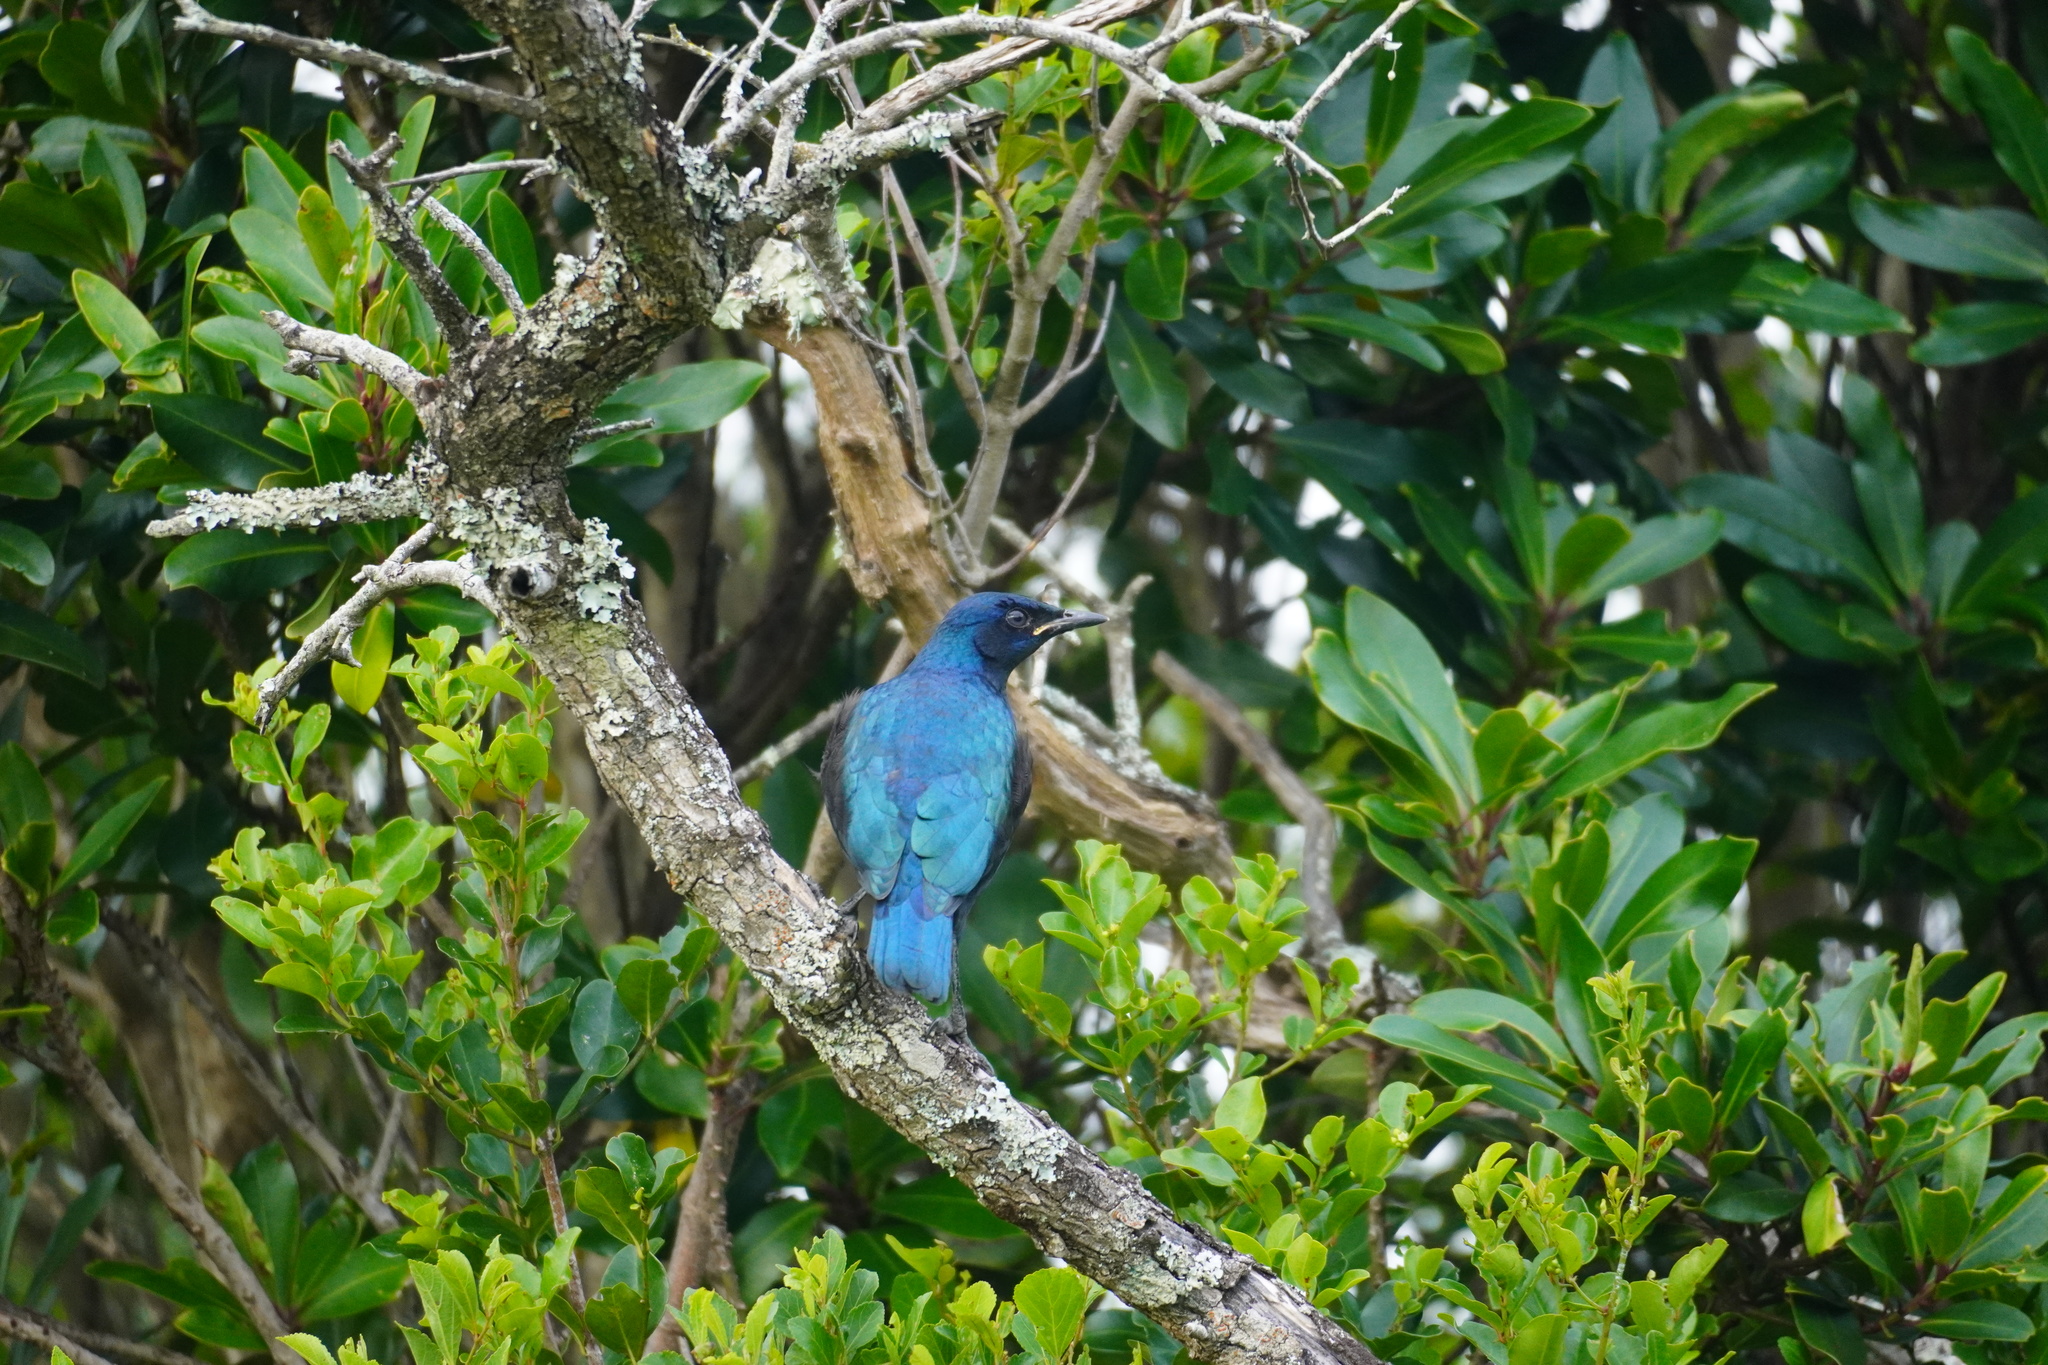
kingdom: Animalia
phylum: Chordata
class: Aves
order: Passeriformes
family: Sturnidae
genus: Lamprotornis
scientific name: Lamprotornis nitens
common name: Cape starling
